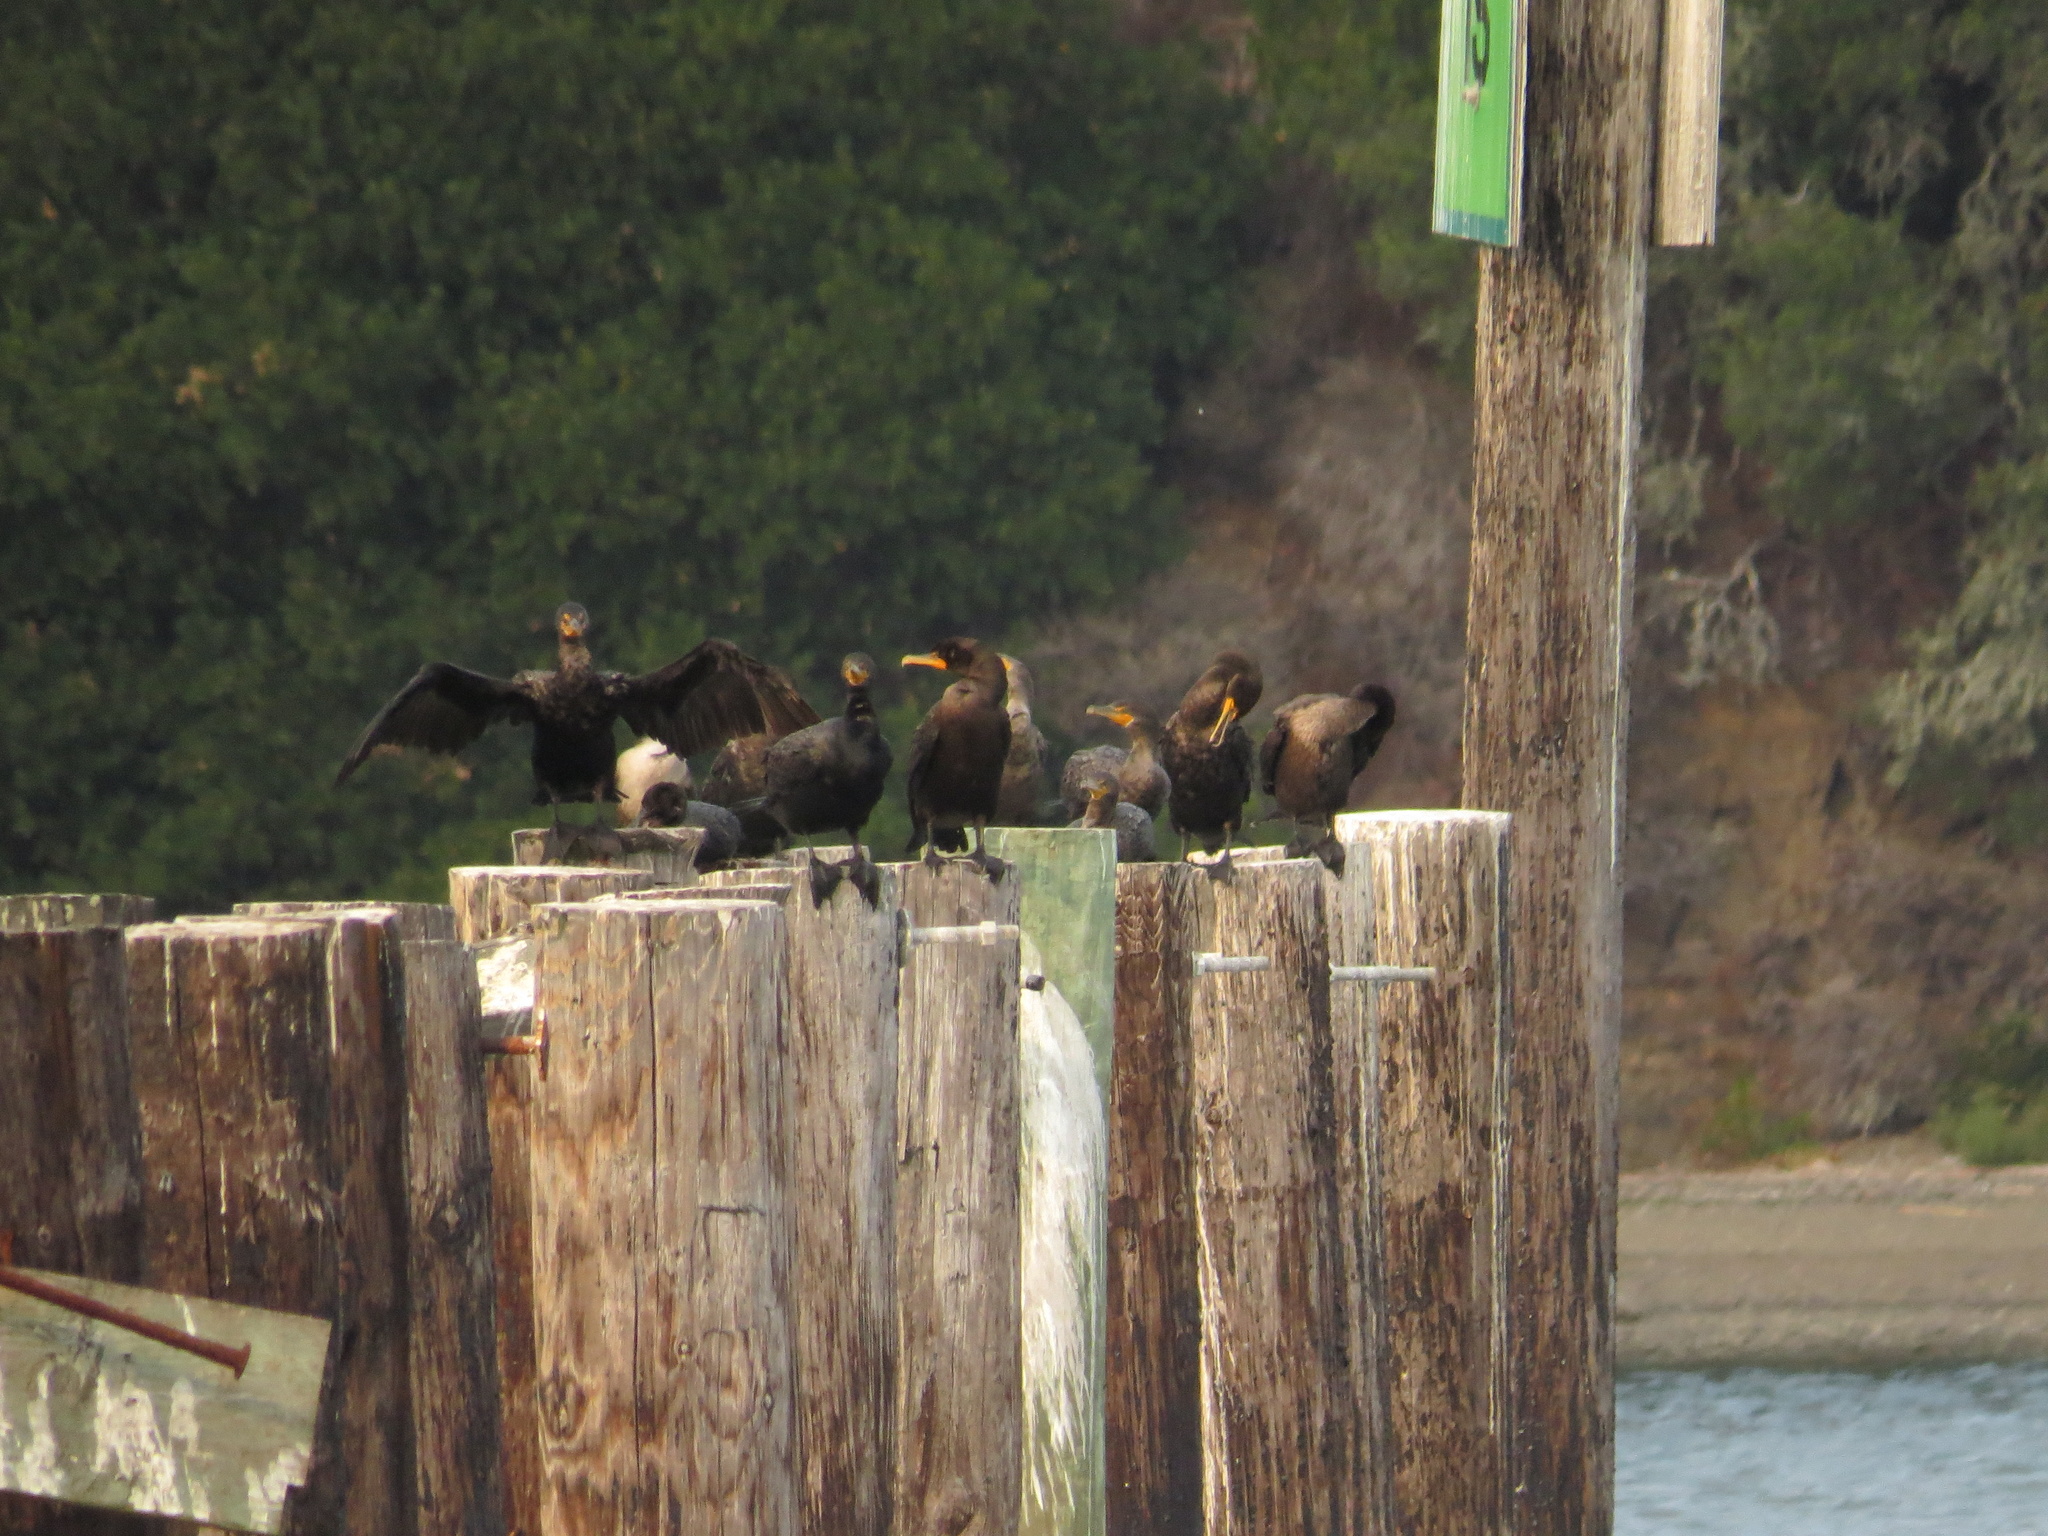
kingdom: Animalia
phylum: Chordata
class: Aves
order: Suliformes
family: Phalacrocoracidae
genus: Phalacrocorax
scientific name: Phalacrocorax auritus
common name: Double-crested cormorant
